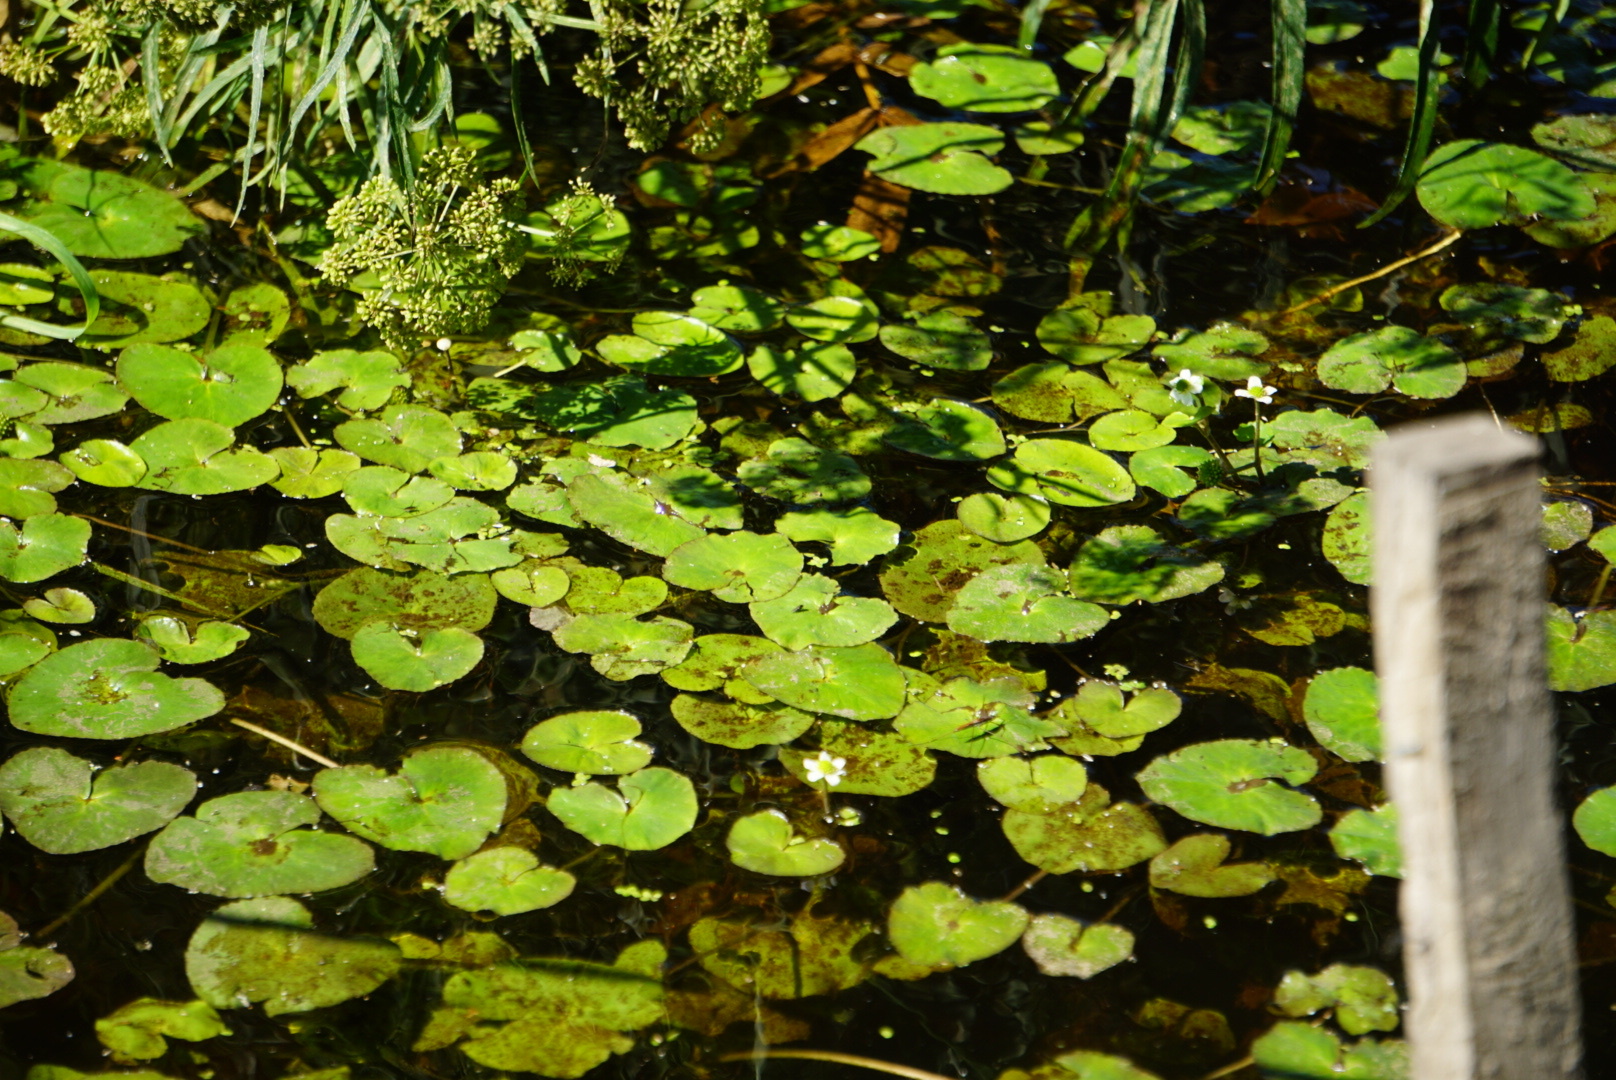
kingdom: Plantae
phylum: Tracheophyta
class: Magnoliopsida
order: Ranunculales
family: Ranunculaceae
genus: Caltha
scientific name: Caltha natans
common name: Floating marsh marigold
